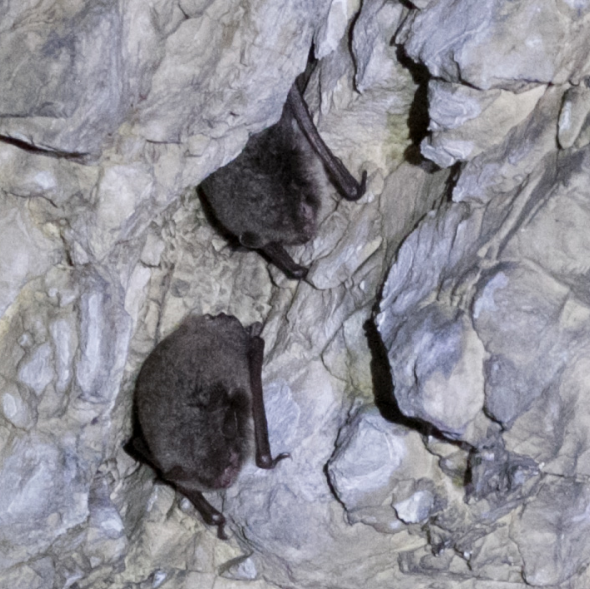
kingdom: Animalia
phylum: Chordata
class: Mammalia
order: Chiroptera
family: Vespertilionidae
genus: Myotis
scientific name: Myotis daubentonii
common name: Daubenton's myotis
